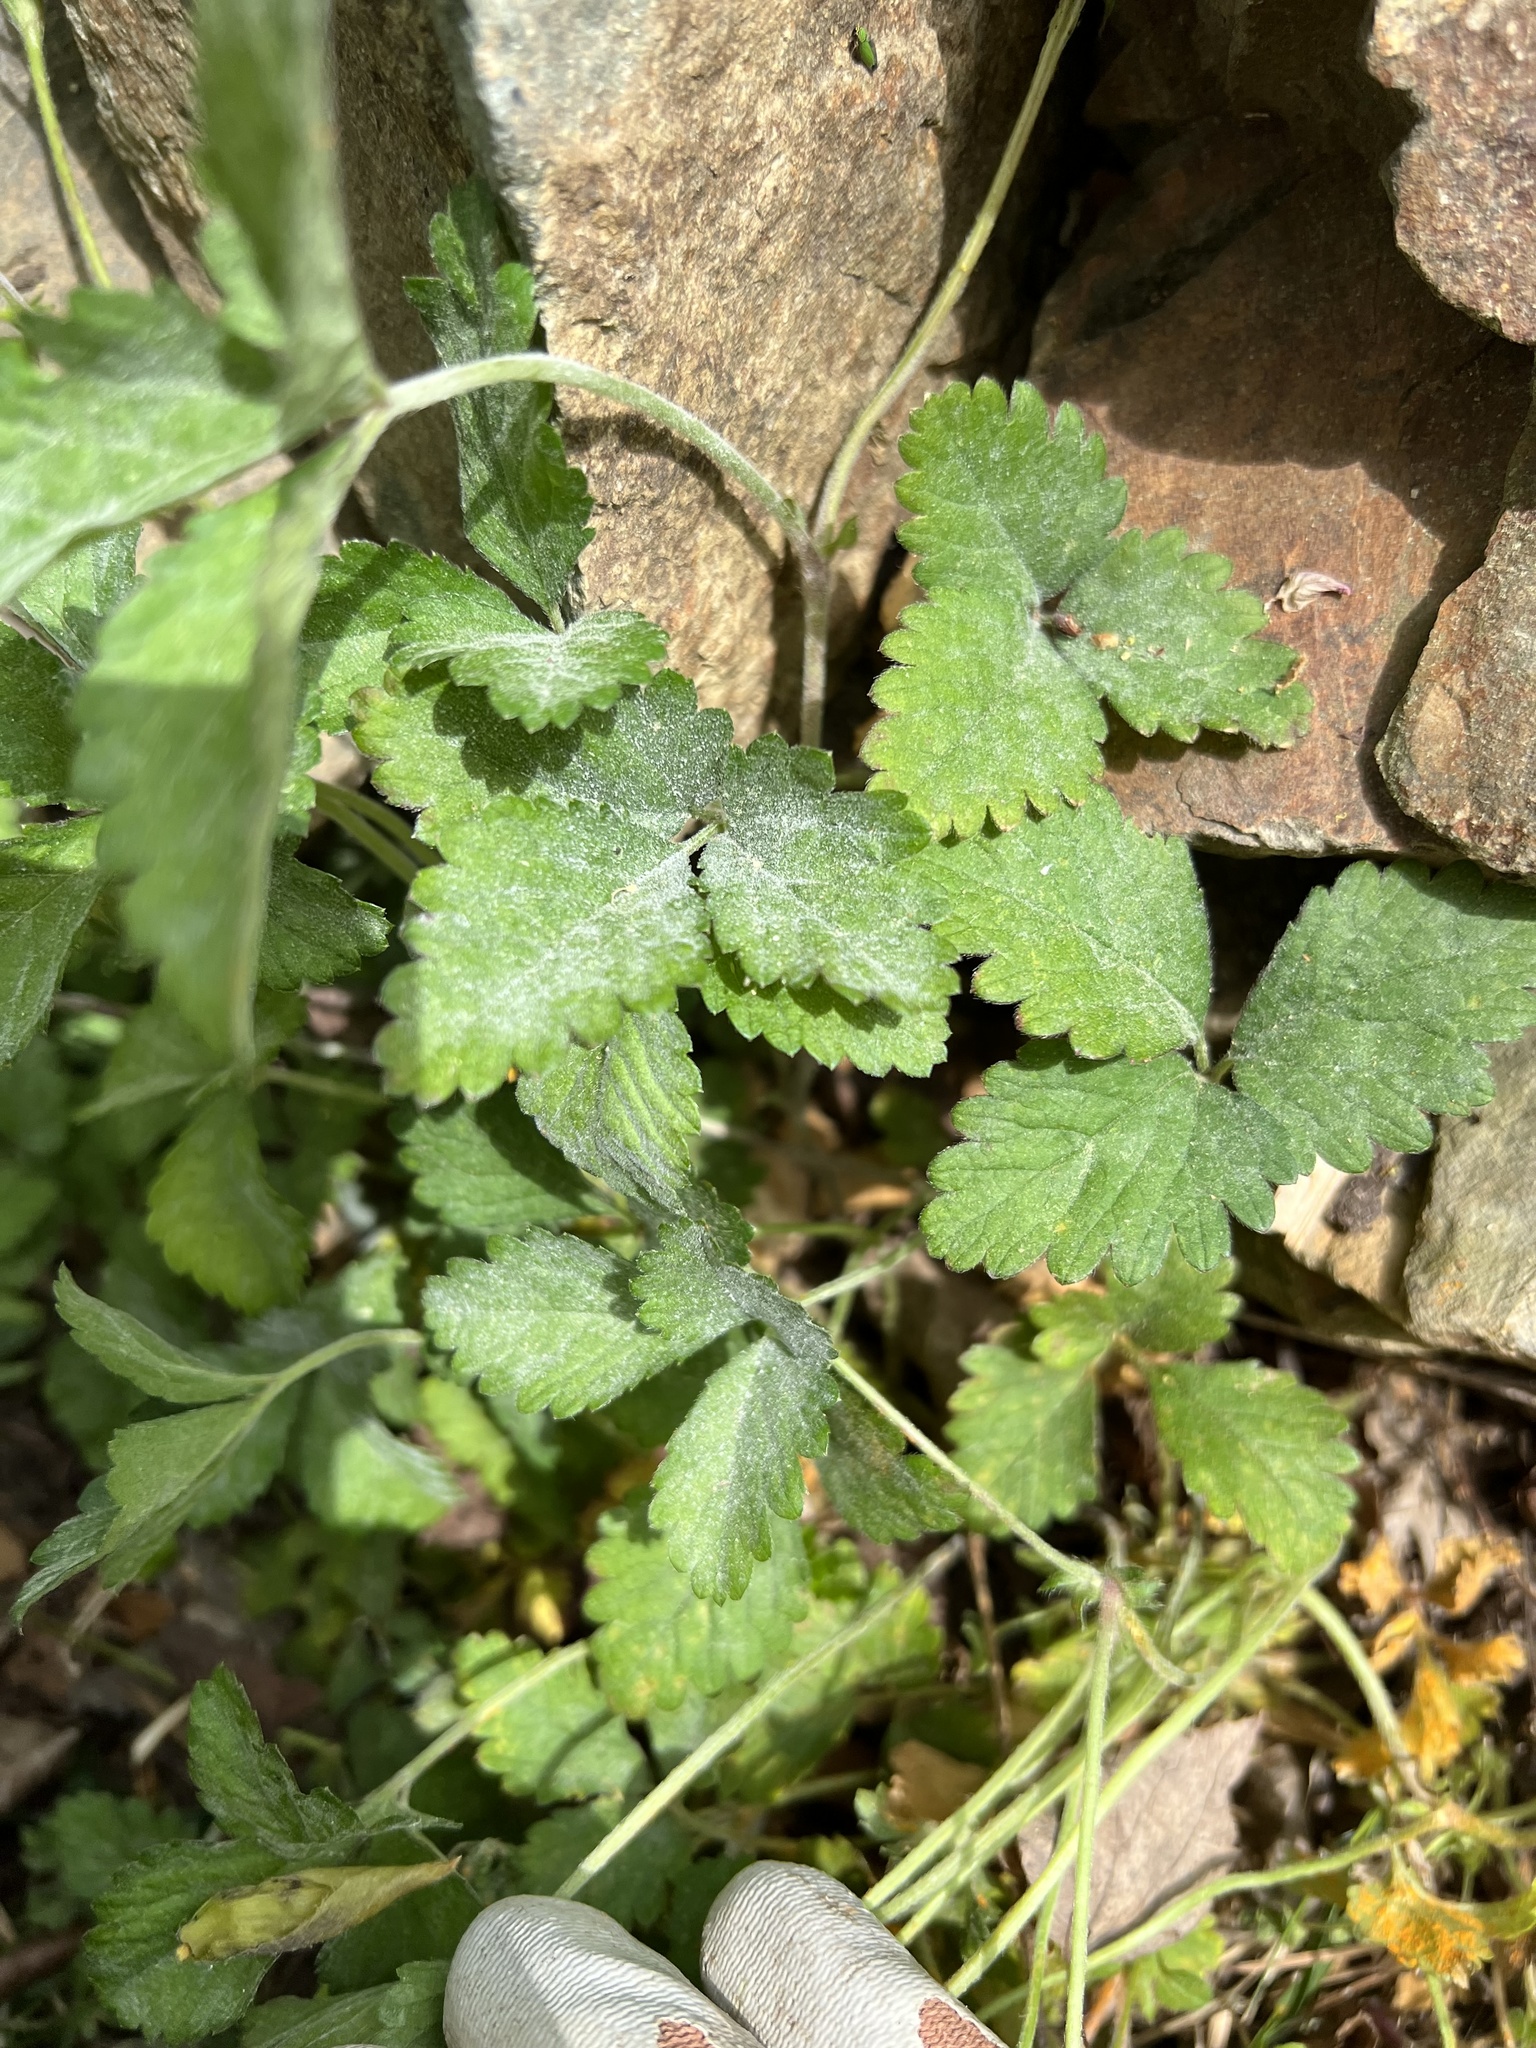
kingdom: Plantae
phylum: Tracheophyta
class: Magnoliopsida
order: Rosales
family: Rosaceae
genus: Potentilla
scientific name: Potentilla indica
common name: Yellow-flowered strawberry
